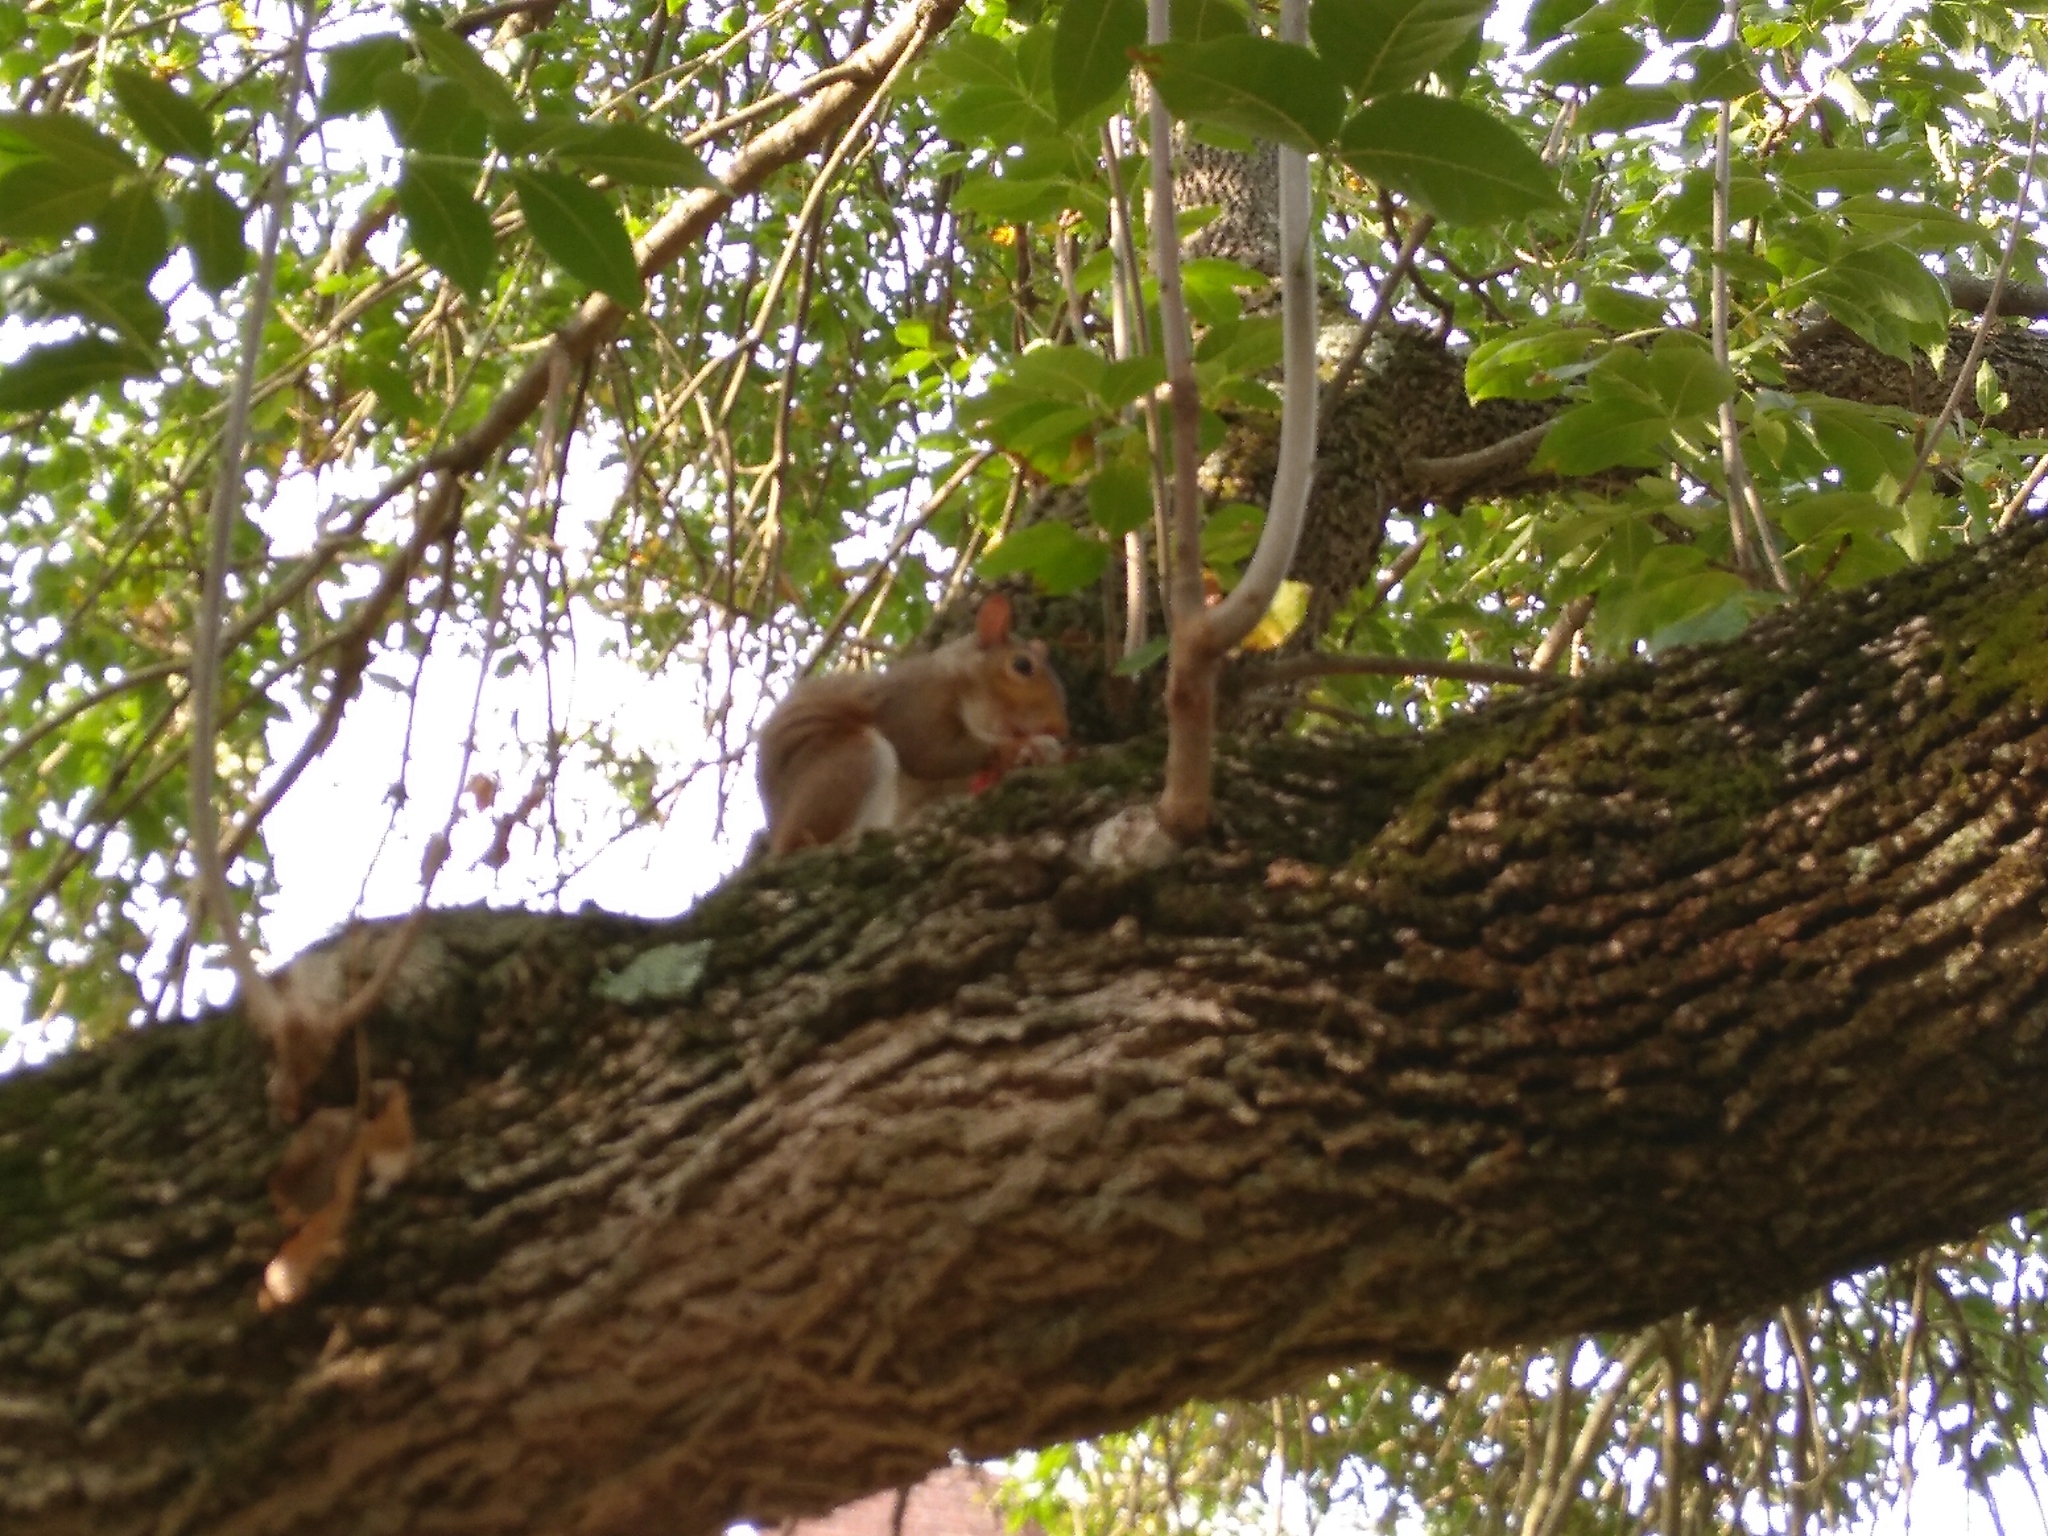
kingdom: Animalia
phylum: Chordata
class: Mammalia
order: Rodentia
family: Sciuridae
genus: Sciurus
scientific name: Sciurus carolinensis
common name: Eastern gray squirrel
